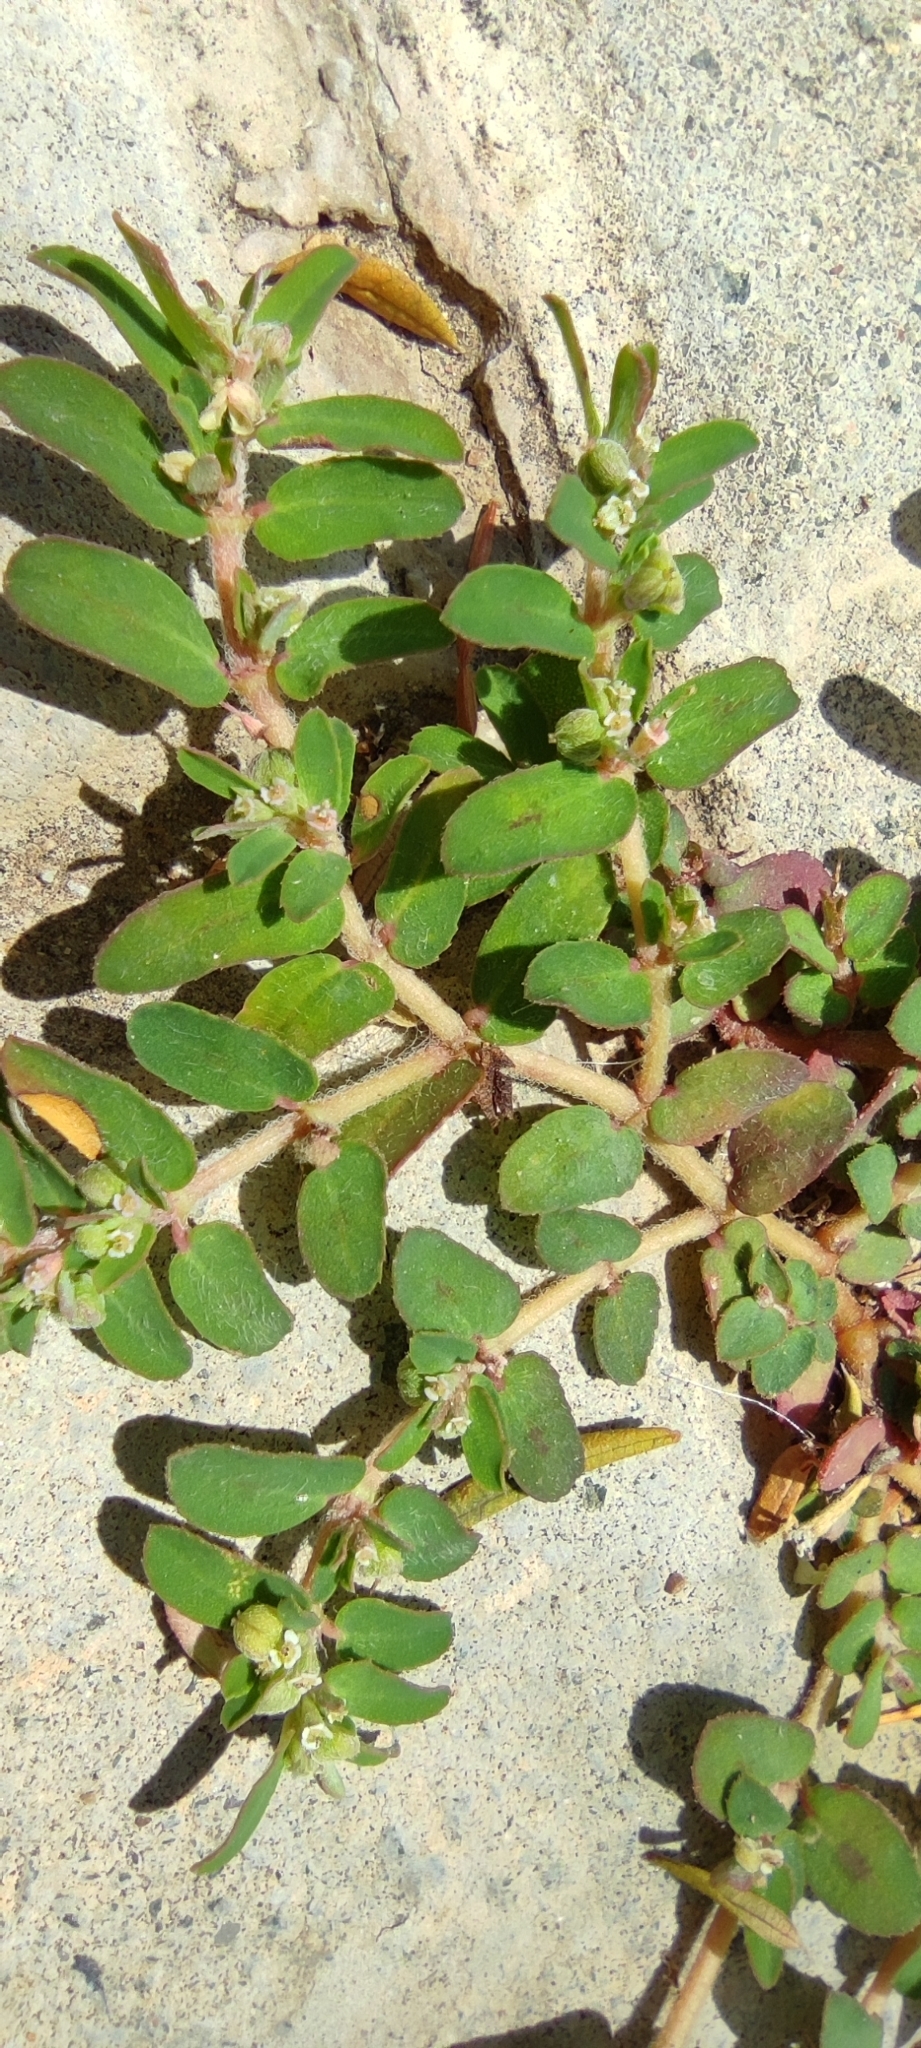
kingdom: Plantae
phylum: Tracheophyta
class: Magnoliopsida
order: Malpighiales
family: Euphorbiaceae
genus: Euphorbia
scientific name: Euphorbia maculata
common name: Spotted spurge
